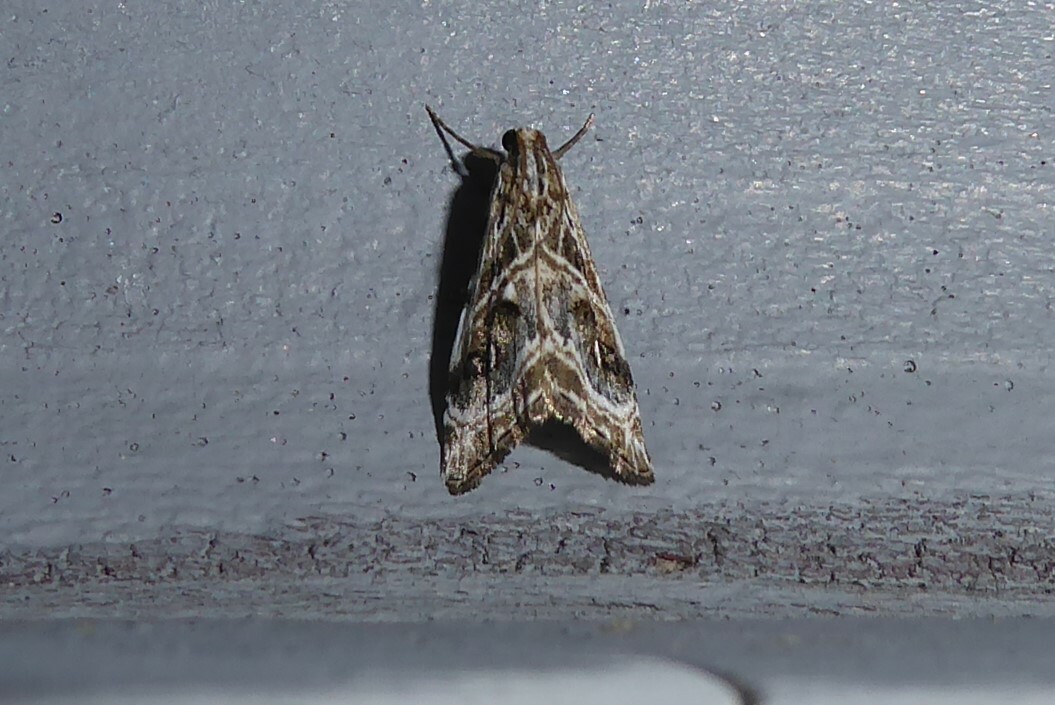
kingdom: Animalia
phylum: Arthropoda
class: Insecta
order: Lepidoptera
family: Crambidae
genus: Gadira
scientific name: Gadira acerella
